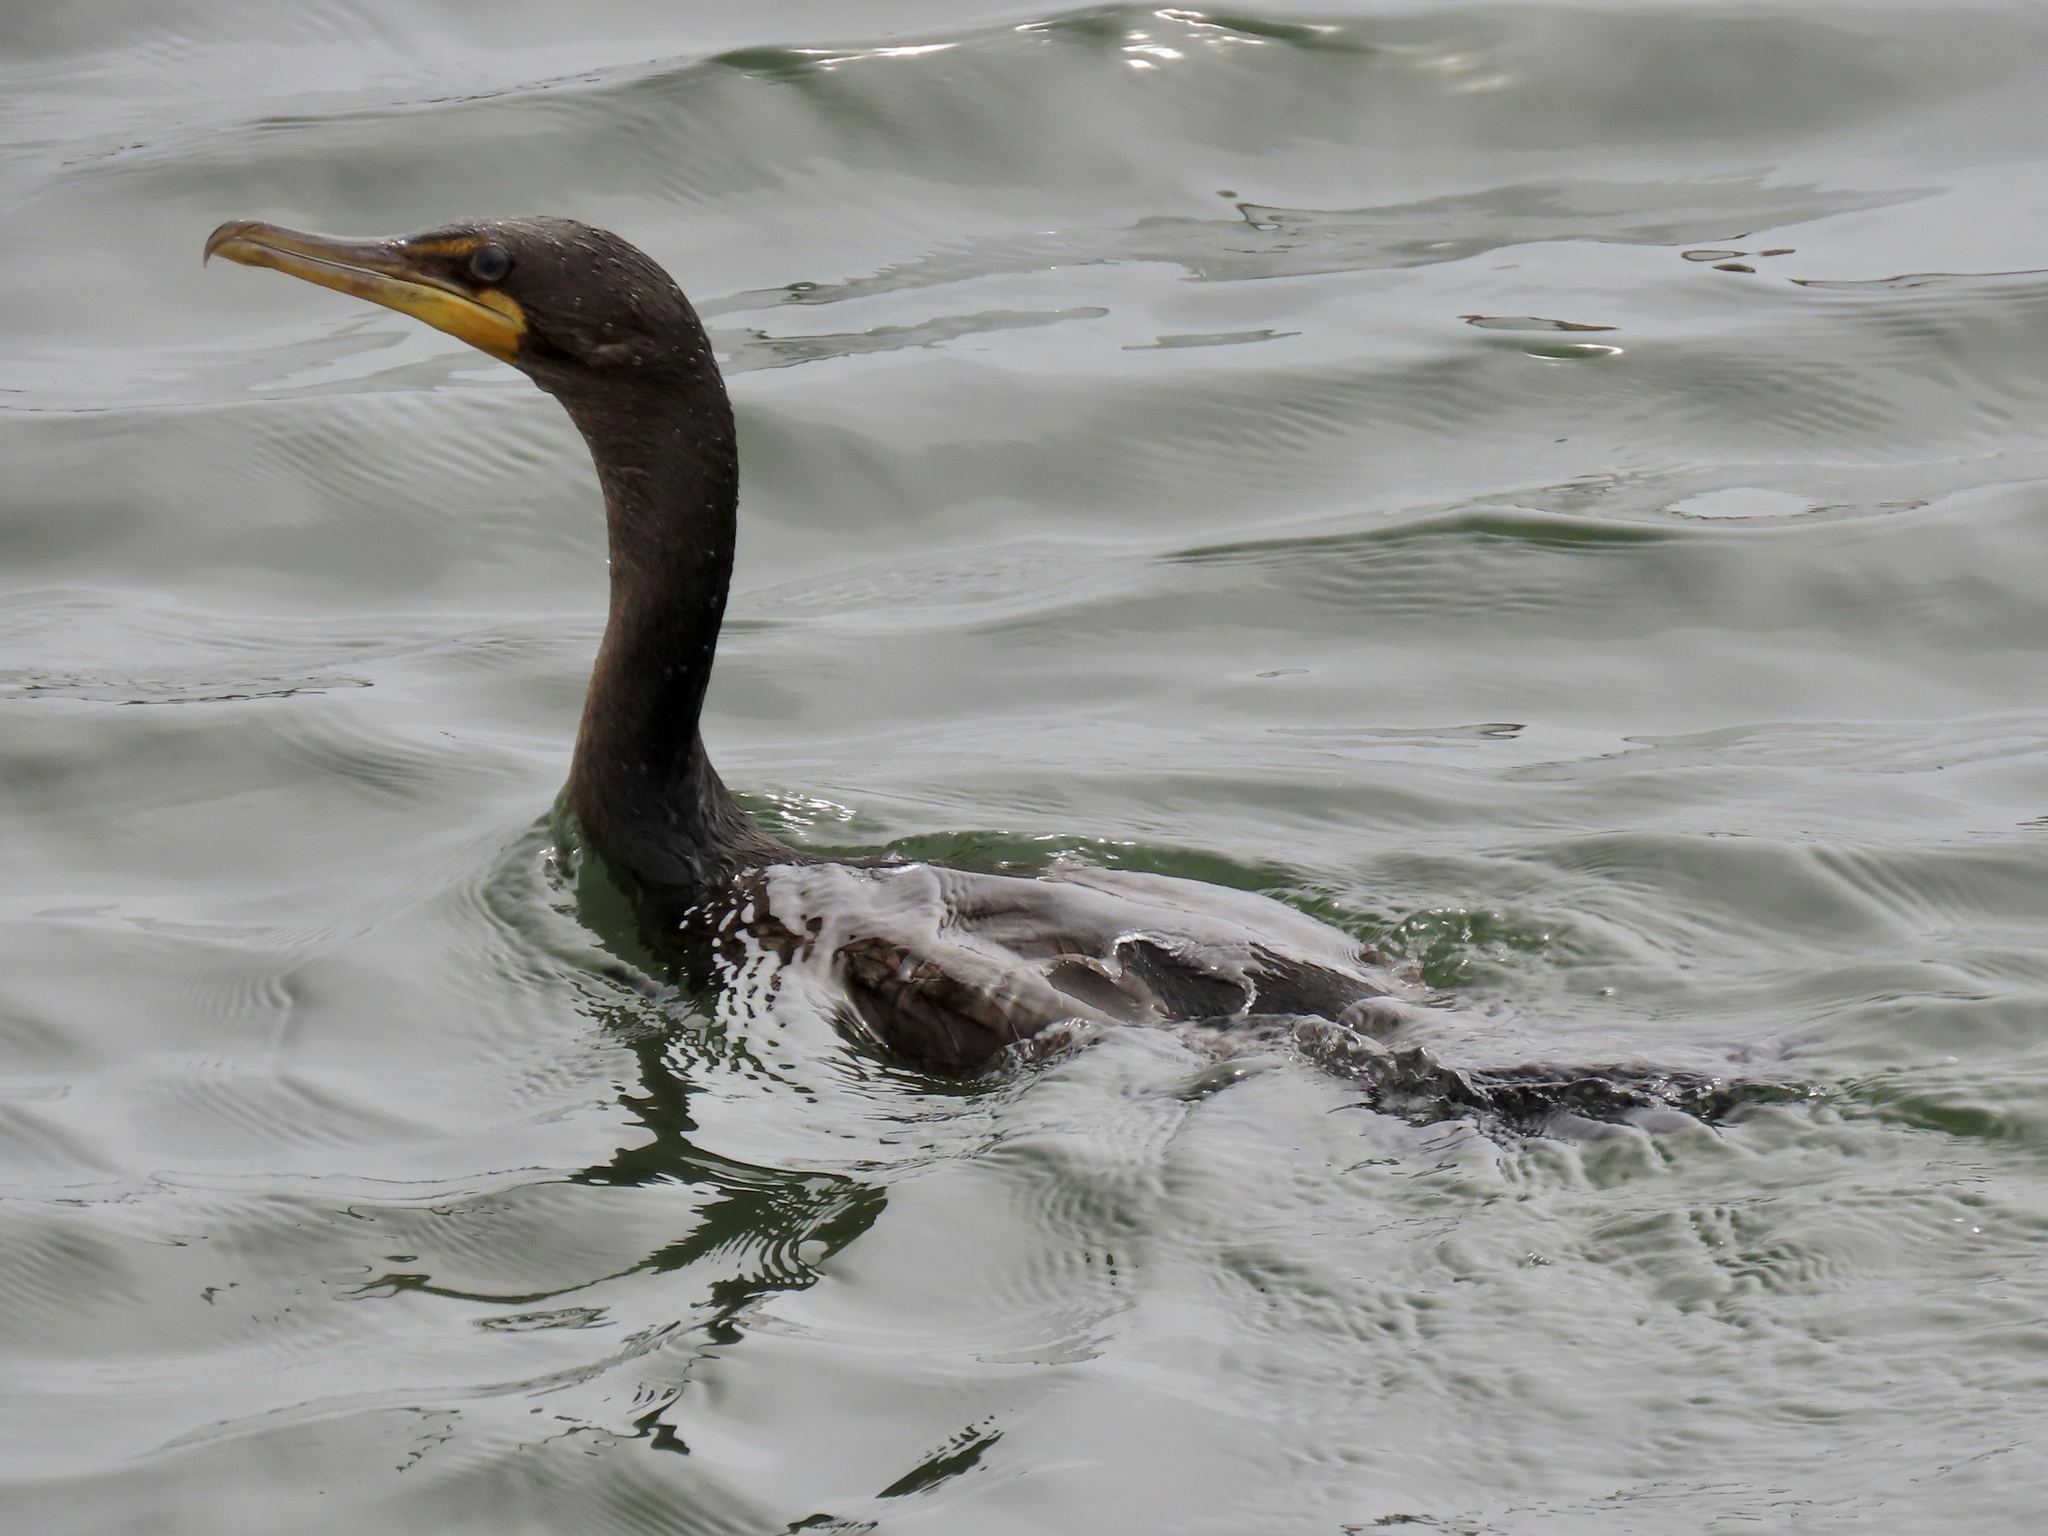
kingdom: Animalia
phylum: Chordata
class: Aves
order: Suliformes
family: Phalacrocoracidae
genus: Phalacrocorax
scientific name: Phalacrocorax auritus
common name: Double-crested cormorant
